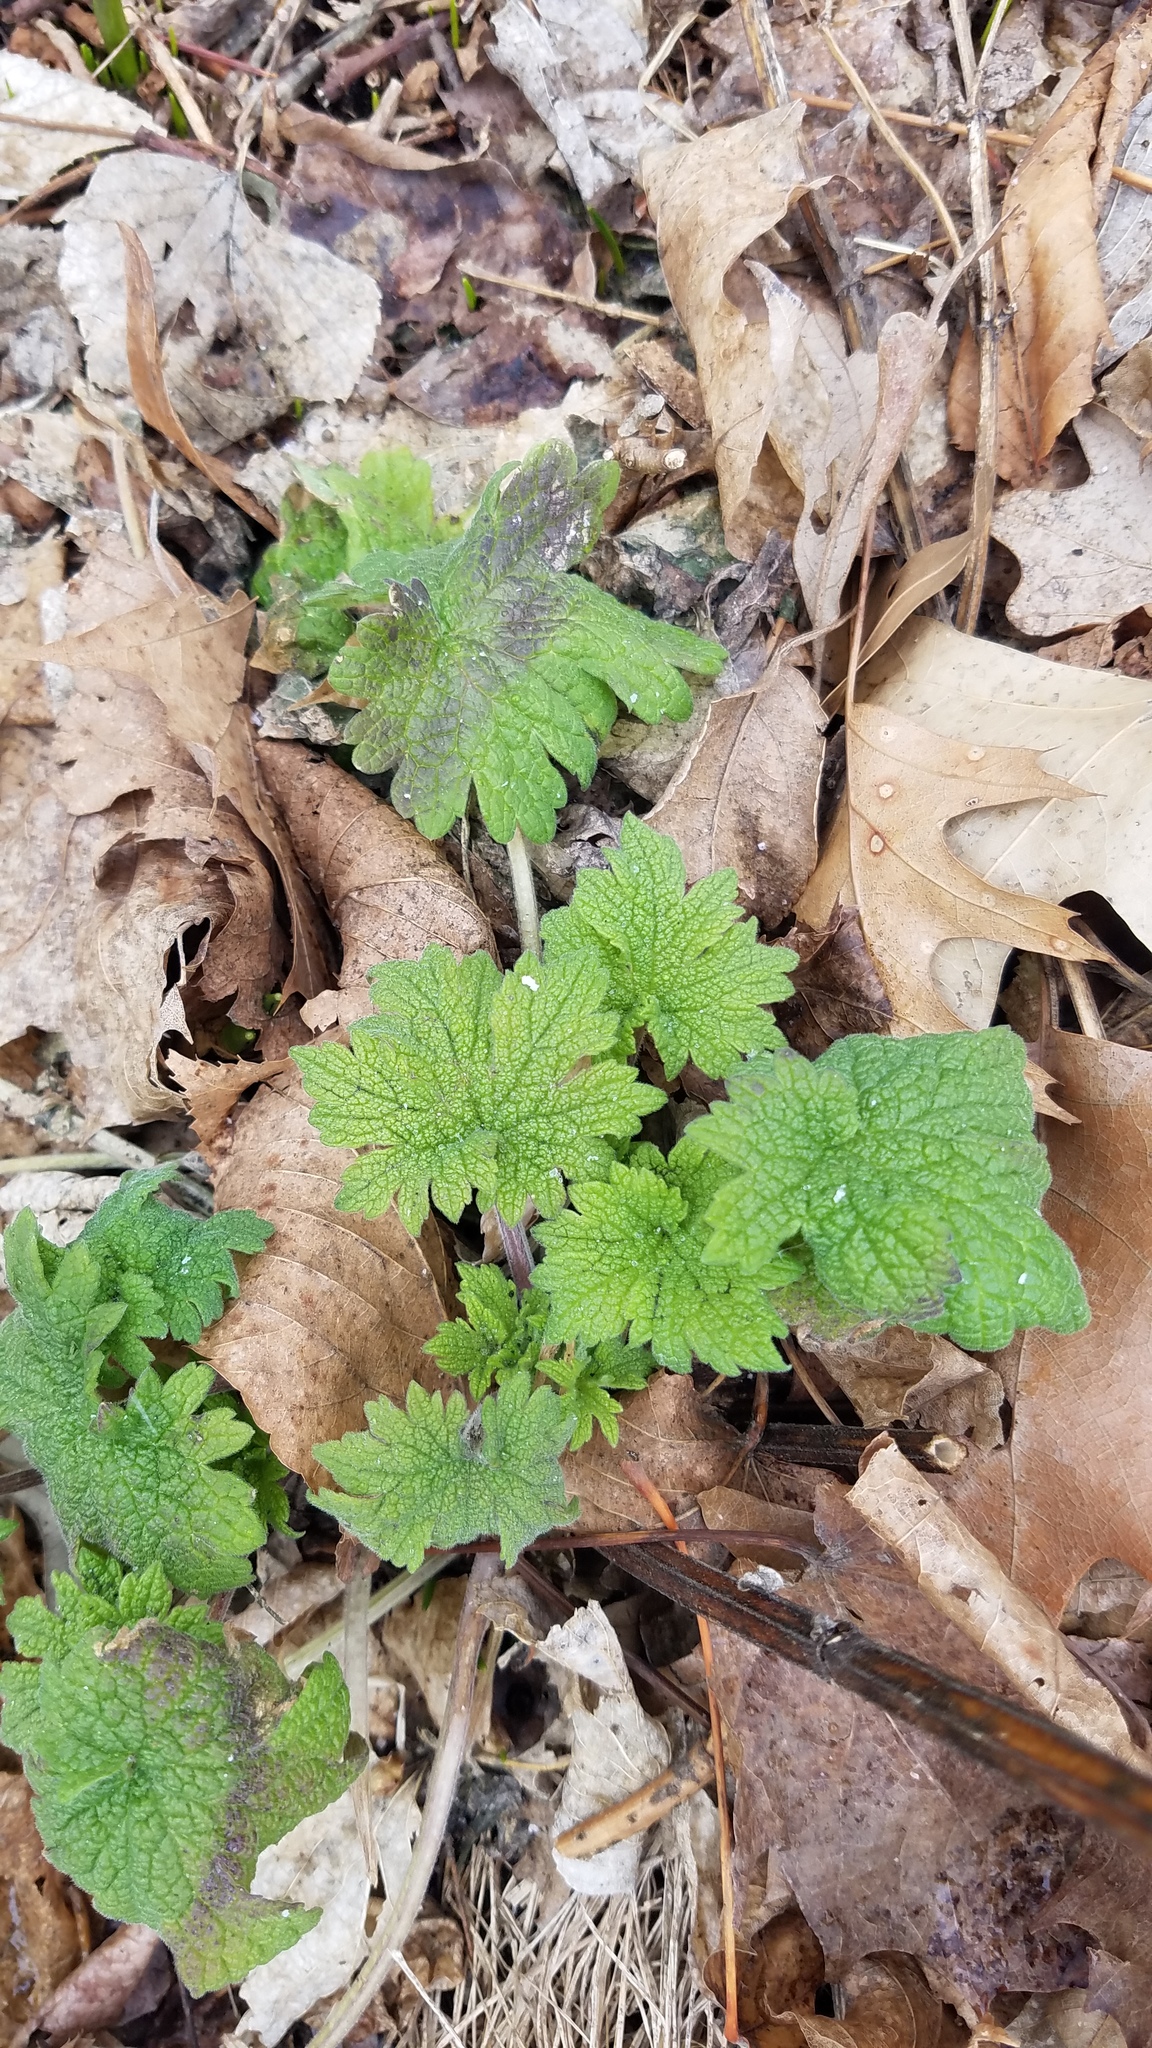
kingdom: Plantae
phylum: Tracheophyta
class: Magnoliopsida
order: Lamiales
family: Lamiaceae
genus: Leonurus
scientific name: Leonurus cardiaca
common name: Motherwort
